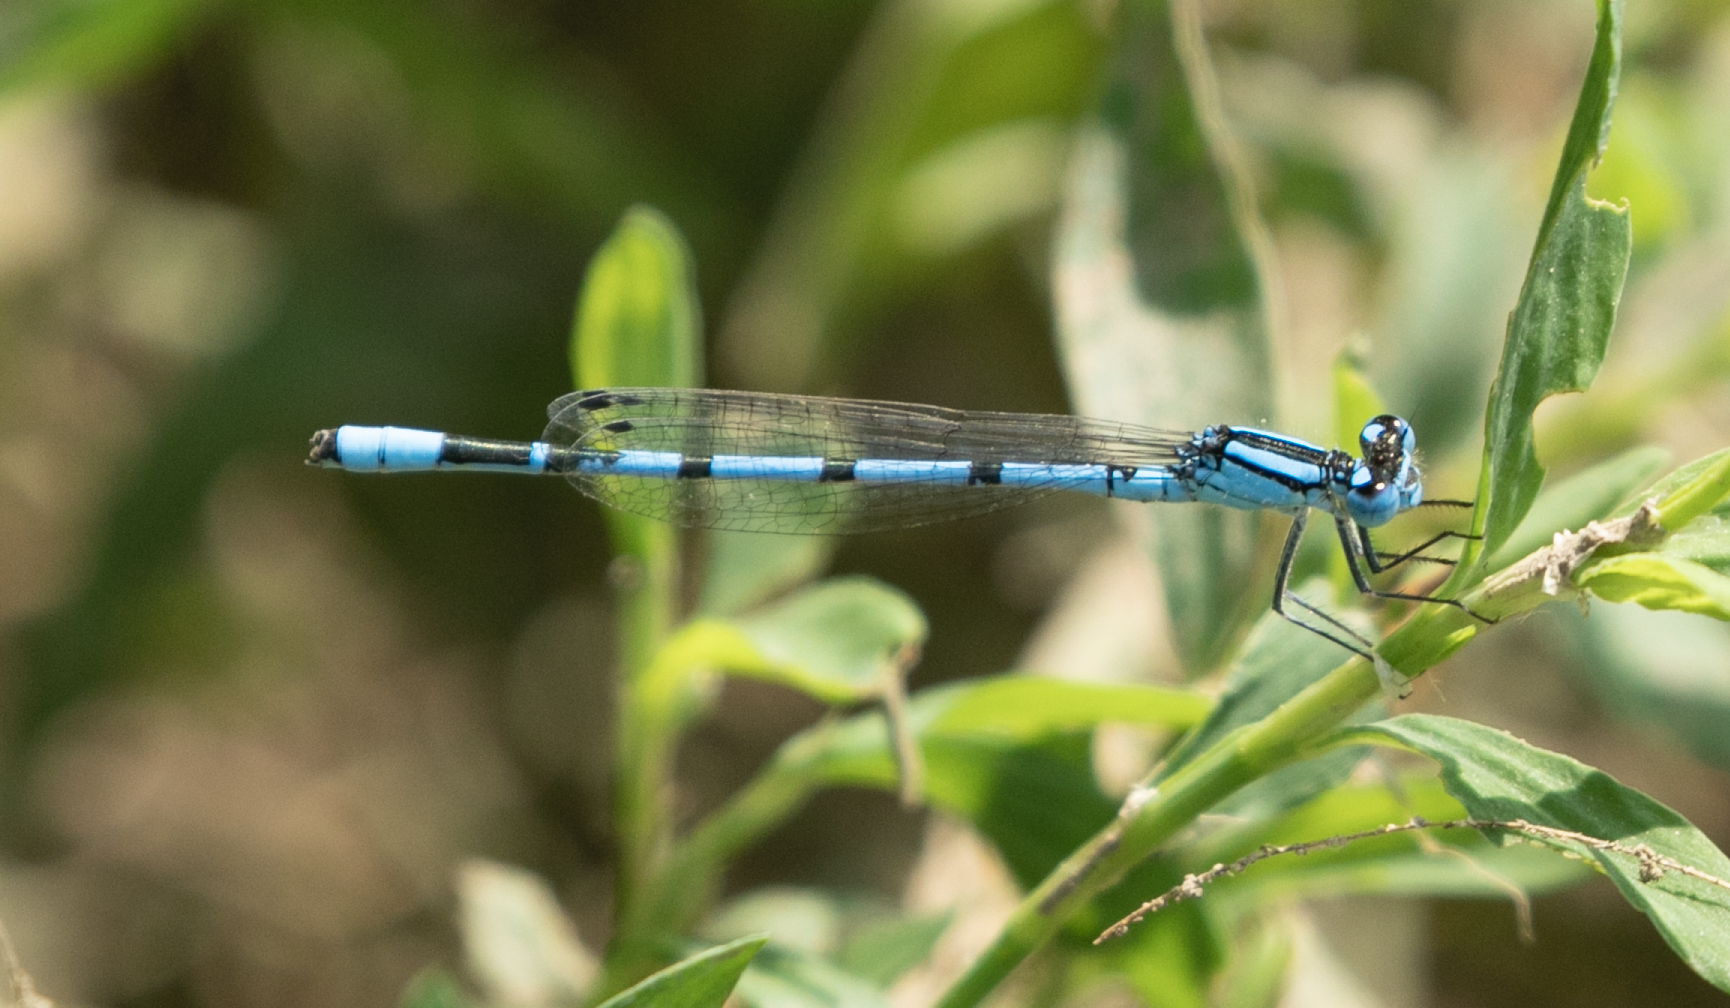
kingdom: Animalia
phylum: Arthropoda
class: Insecta
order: Odonata
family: Coenagrionidae
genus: Enallagma
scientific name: Enallagma cyathigerum
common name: Common blue damselfly
